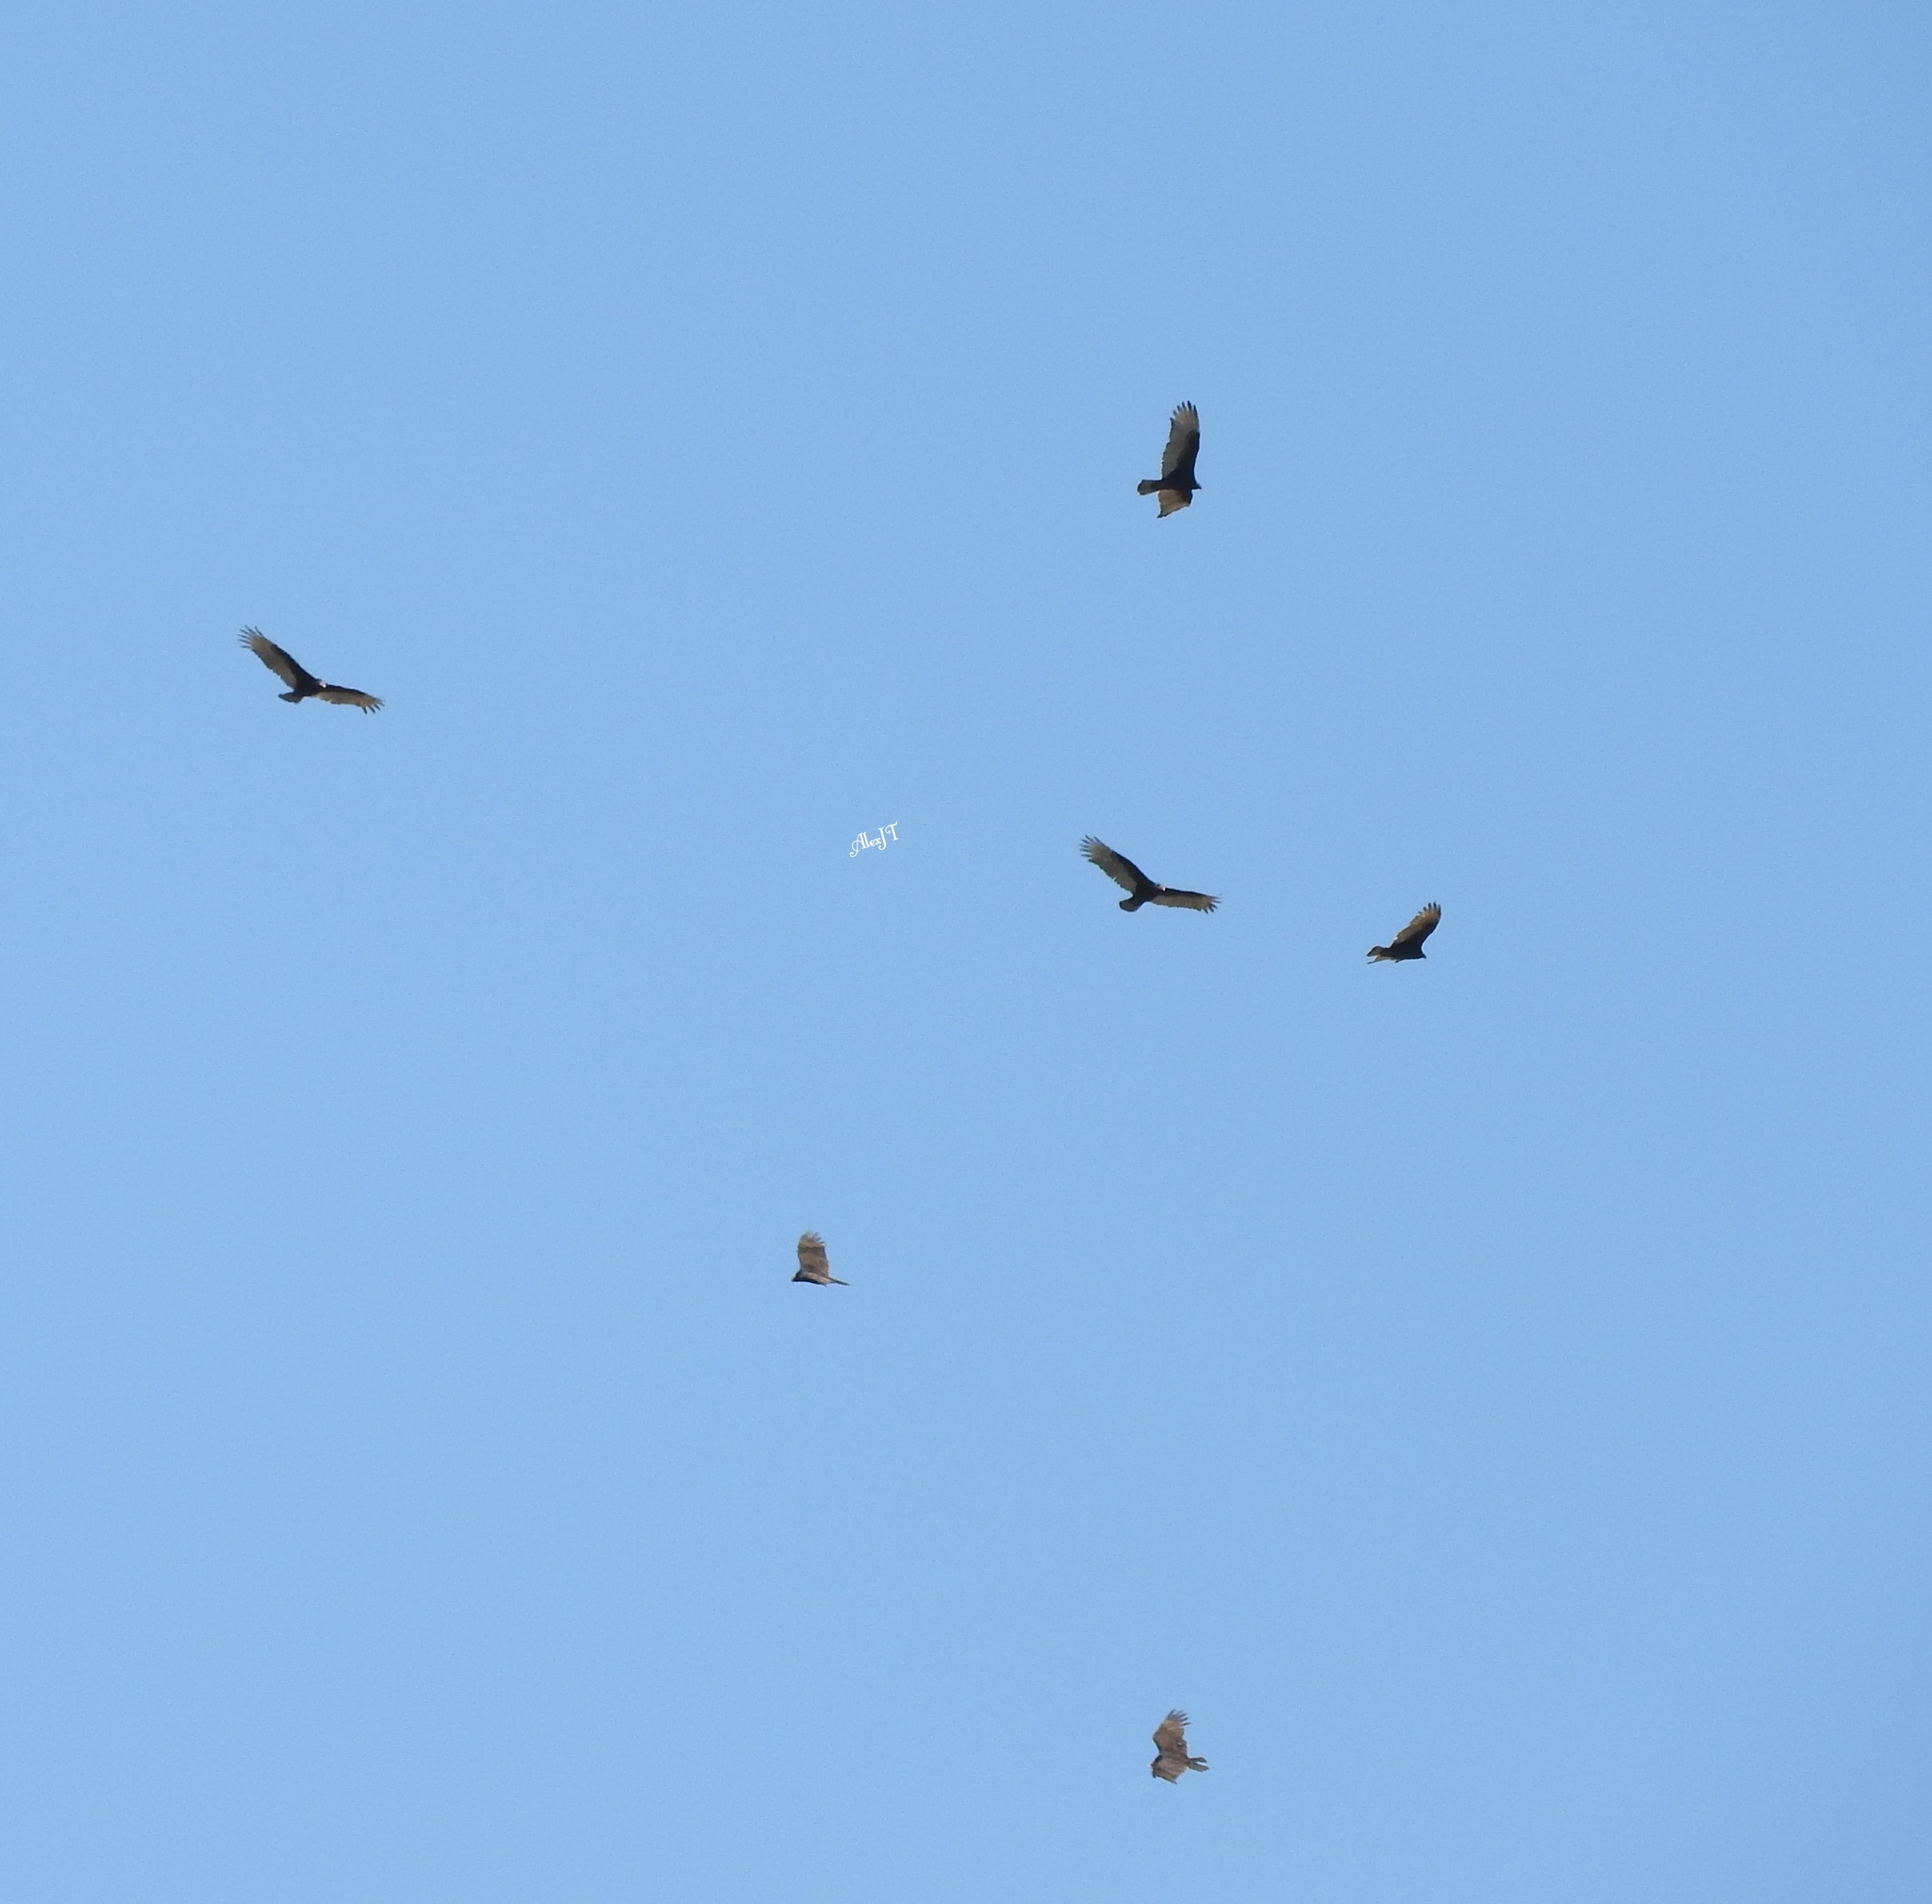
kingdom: Animalia
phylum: Chordata
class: Aves
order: Accipitriformes
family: Cathartidae
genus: Cathartes
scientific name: Cathartes aura
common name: Turkey vulture
